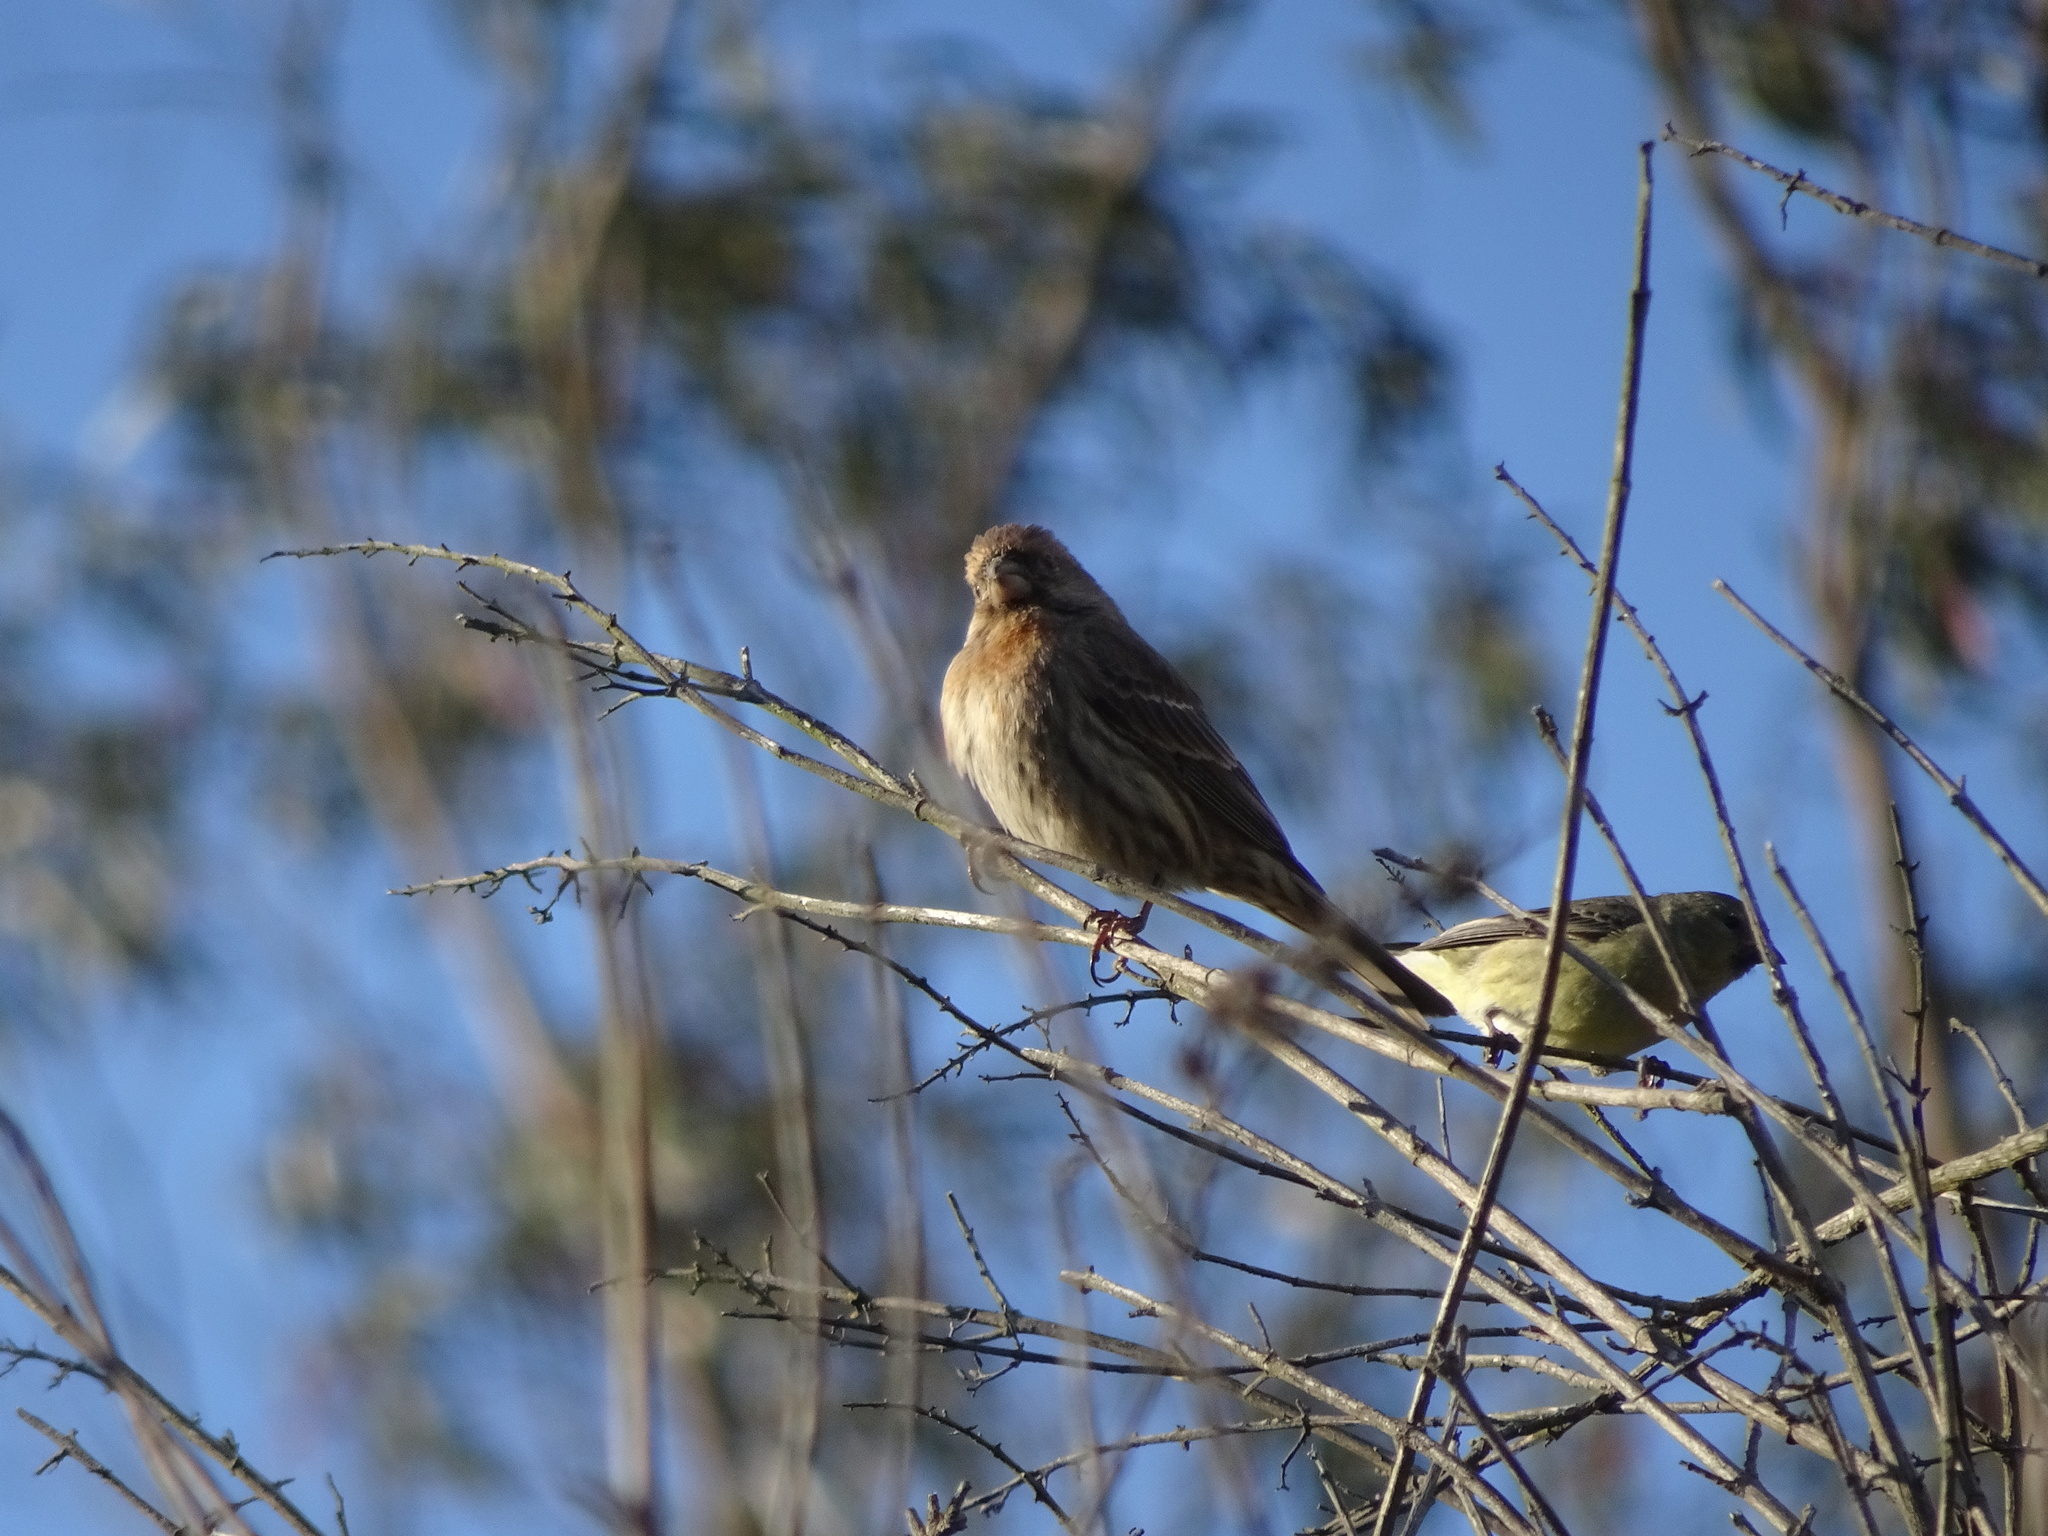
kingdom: Animalia
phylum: Chordata
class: Aves
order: Passeriformes
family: Fringillidae
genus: Haemorhous
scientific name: Haemorhous mexicanus
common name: House finch
